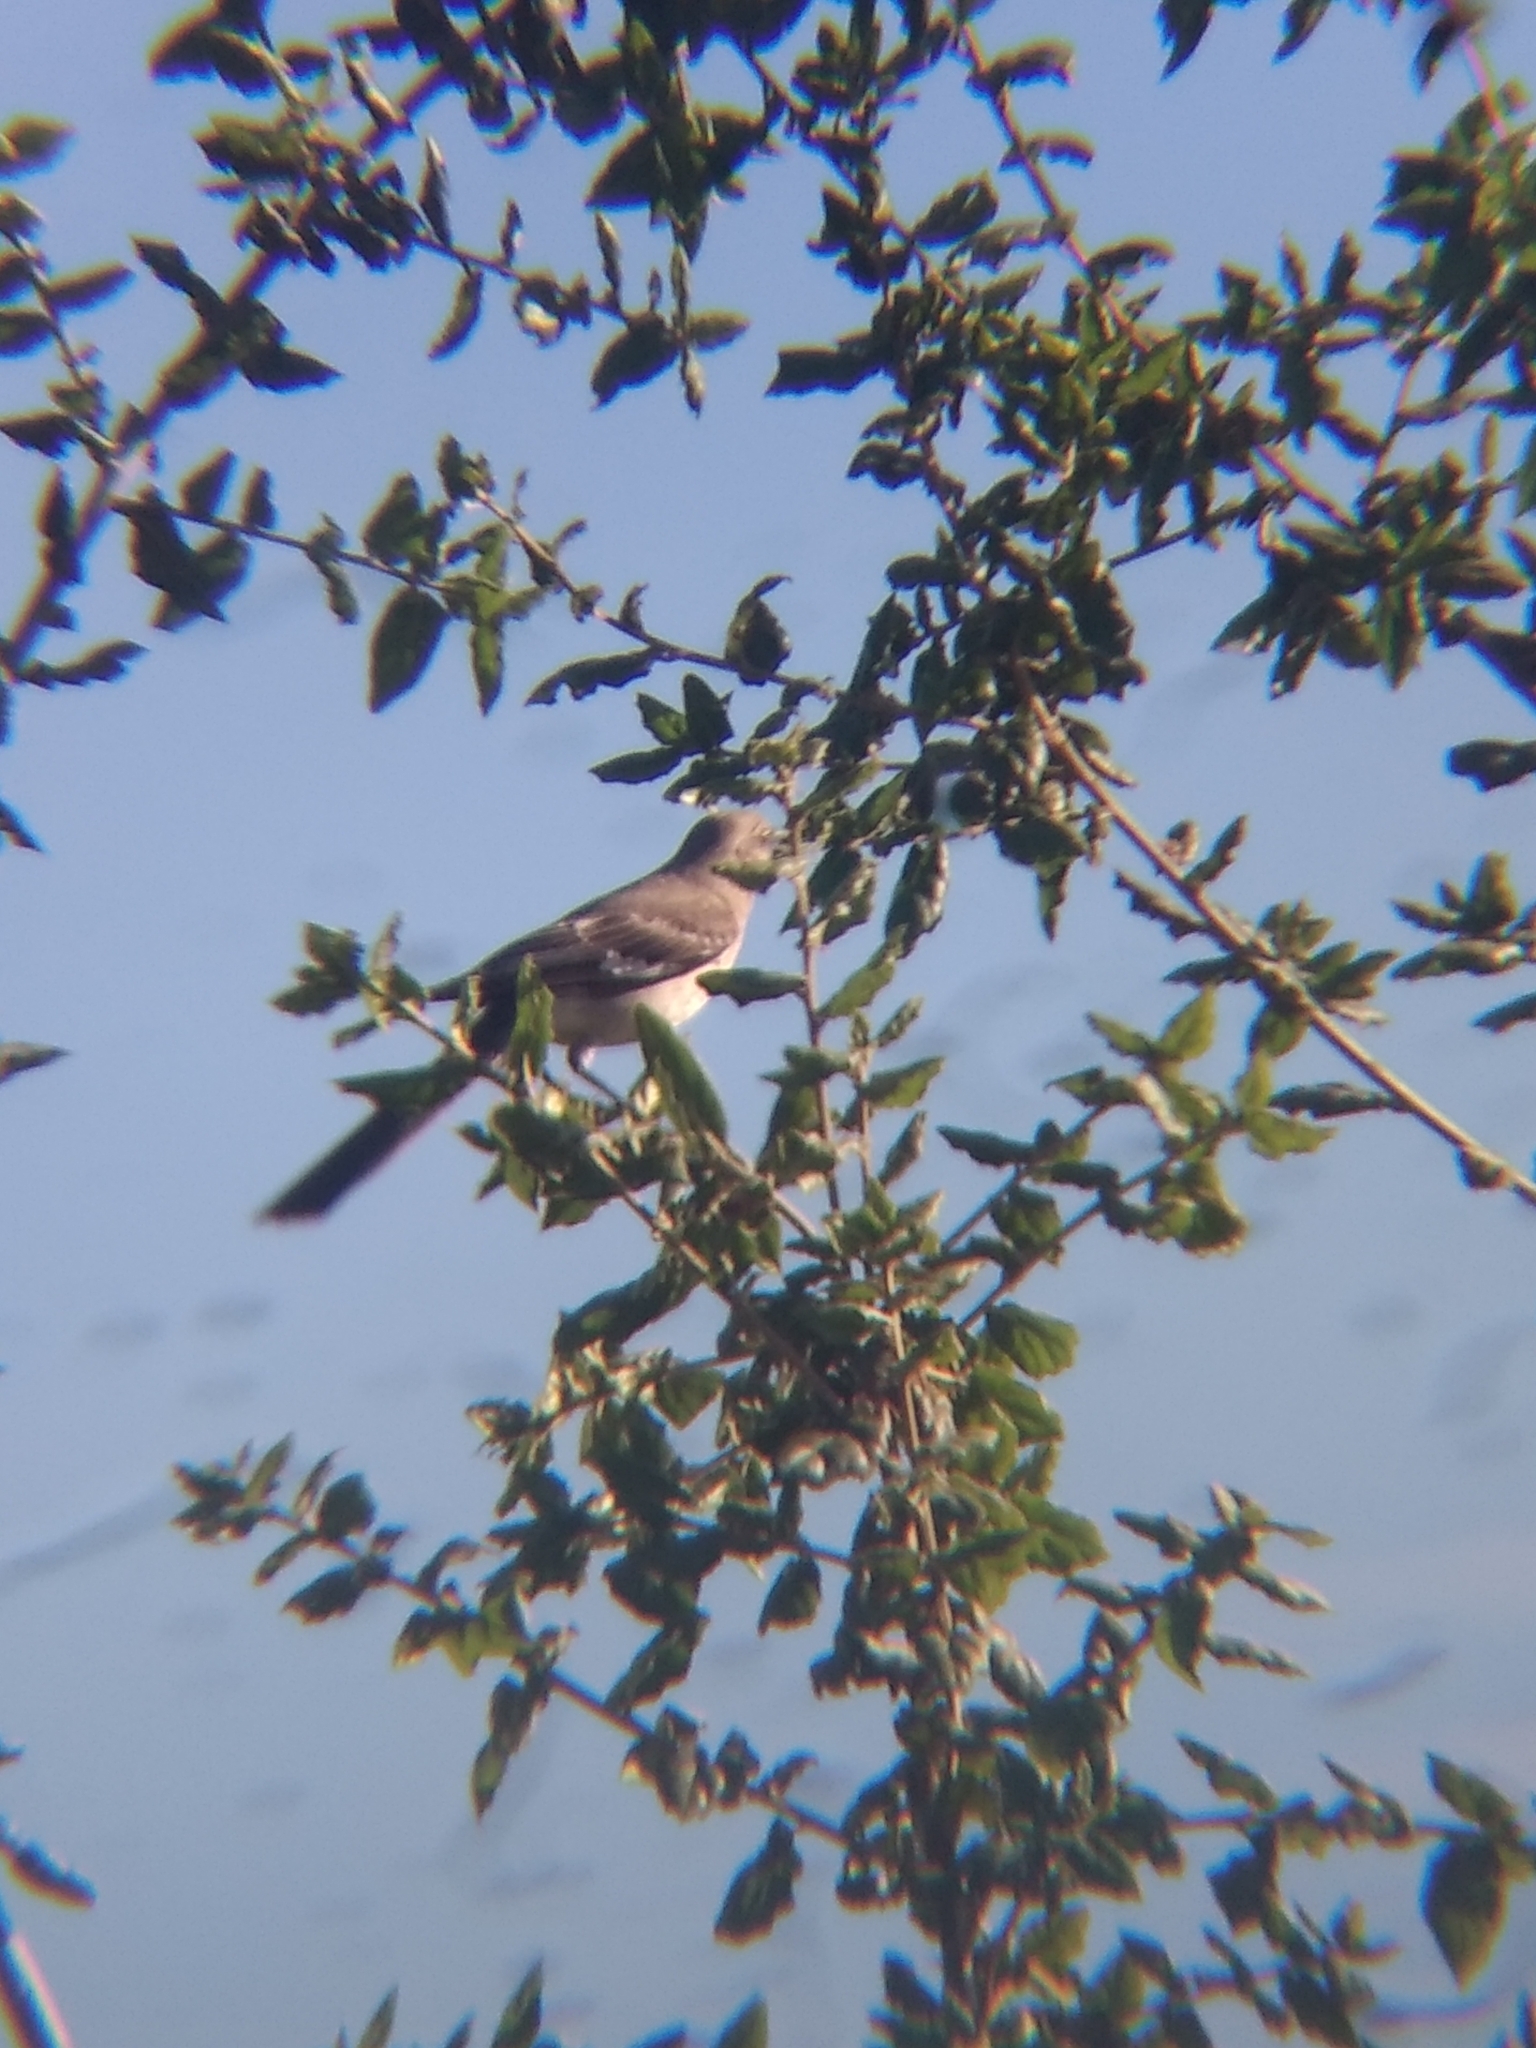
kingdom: Animalia
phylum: Chordata
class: Aves
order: Passeriformes
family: Mimidae
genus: Mimus
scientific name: Mimus polyglottos
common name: Northern mockingbird
